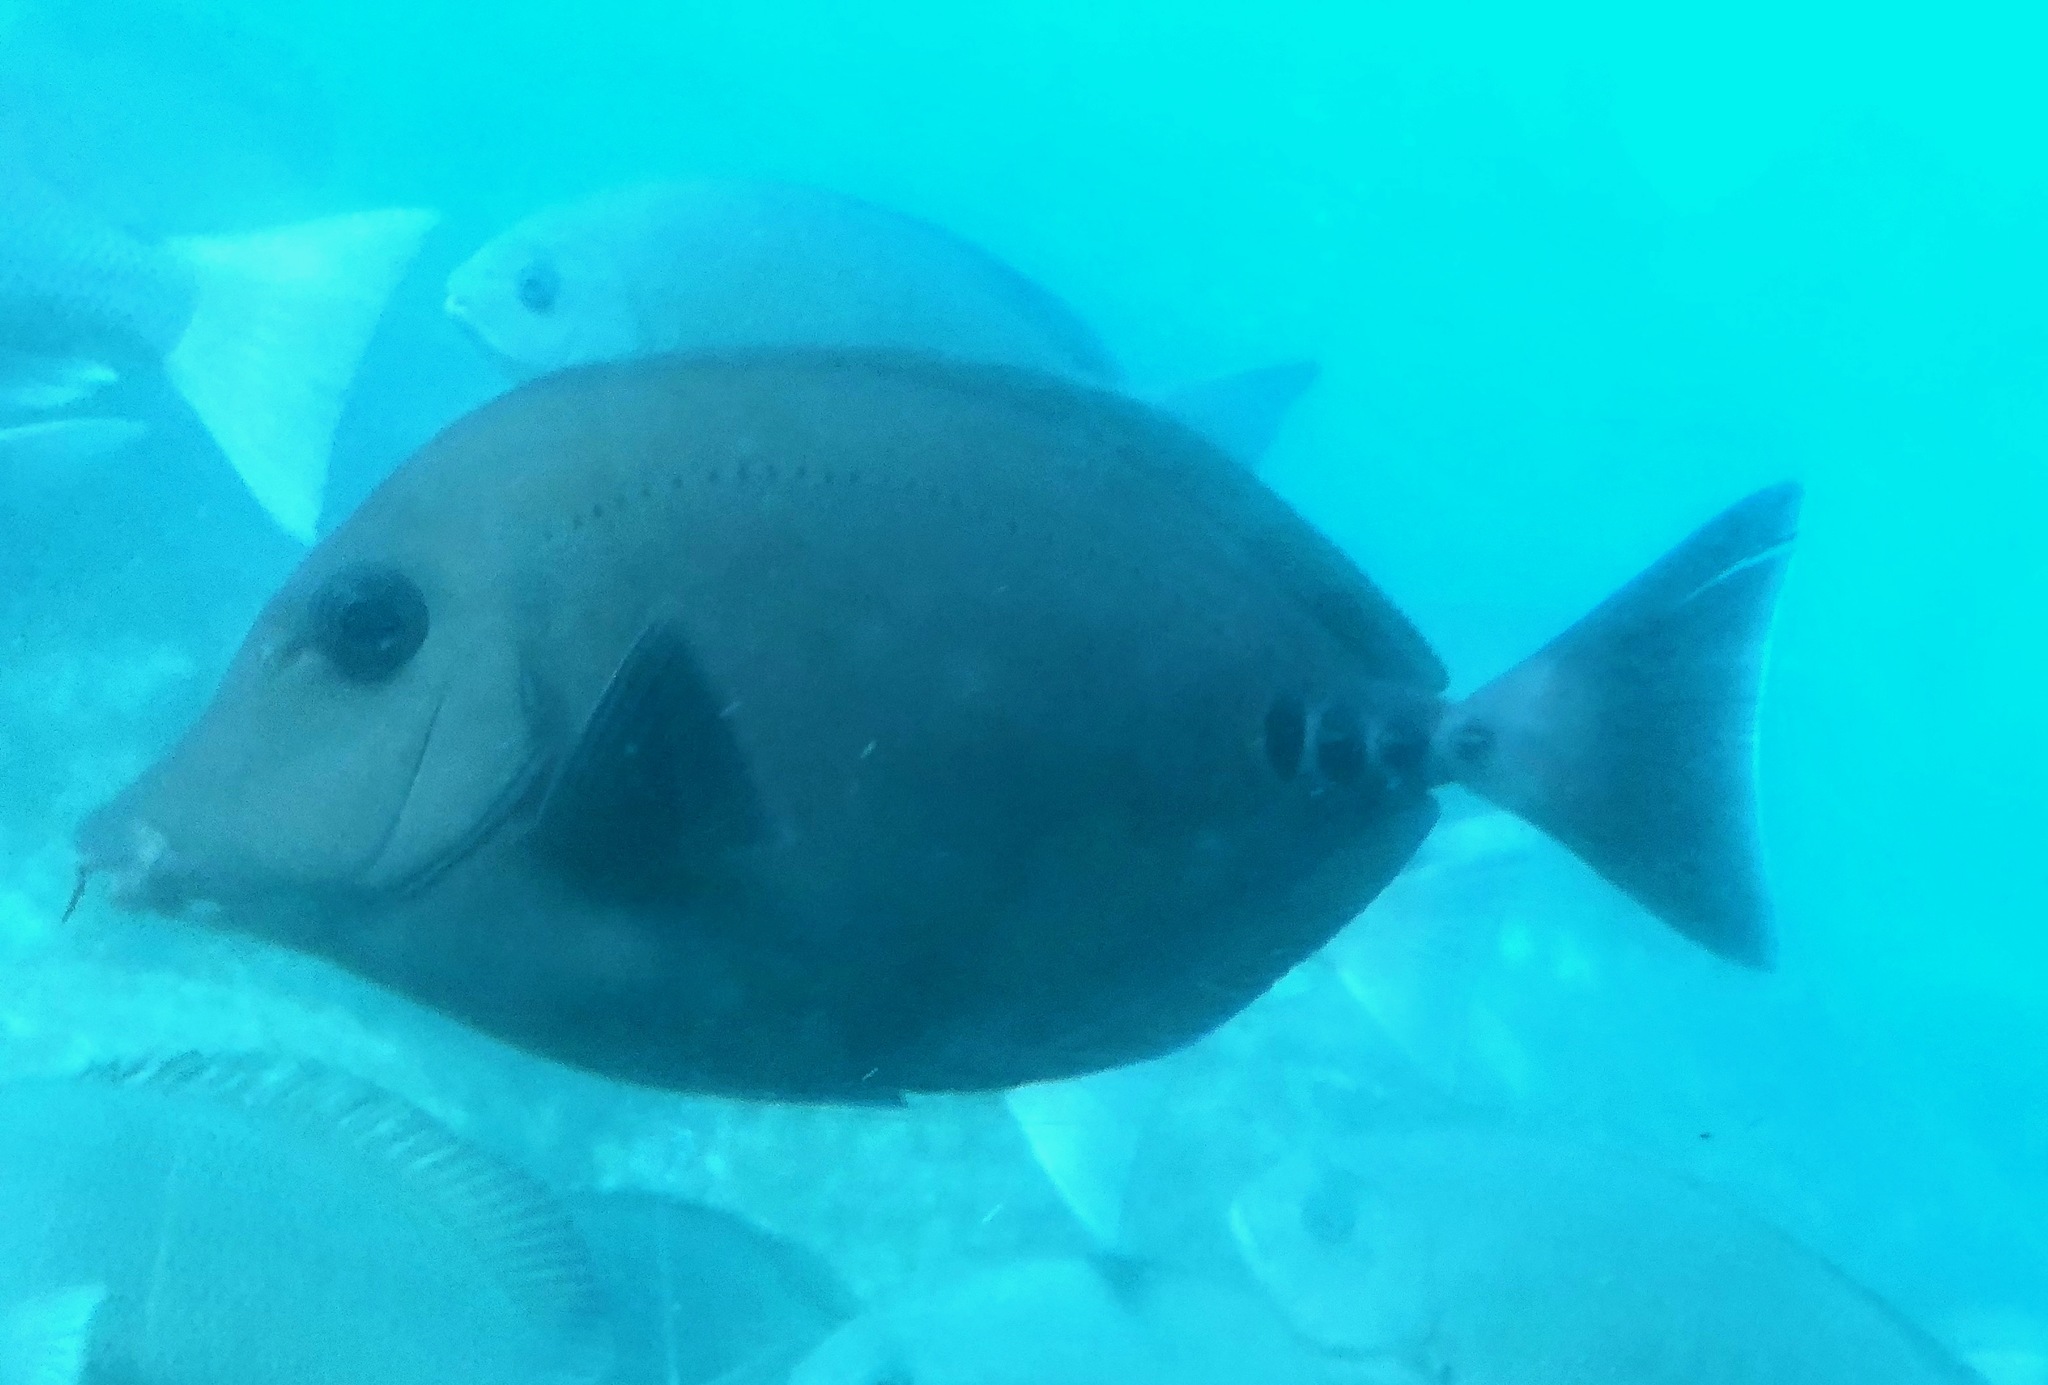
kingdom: Animalia
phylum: Chordata
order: Perciformes
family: Acanthuridae
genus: Prionurus
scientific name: Prionurus scalprum
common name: Japanese sawtail
